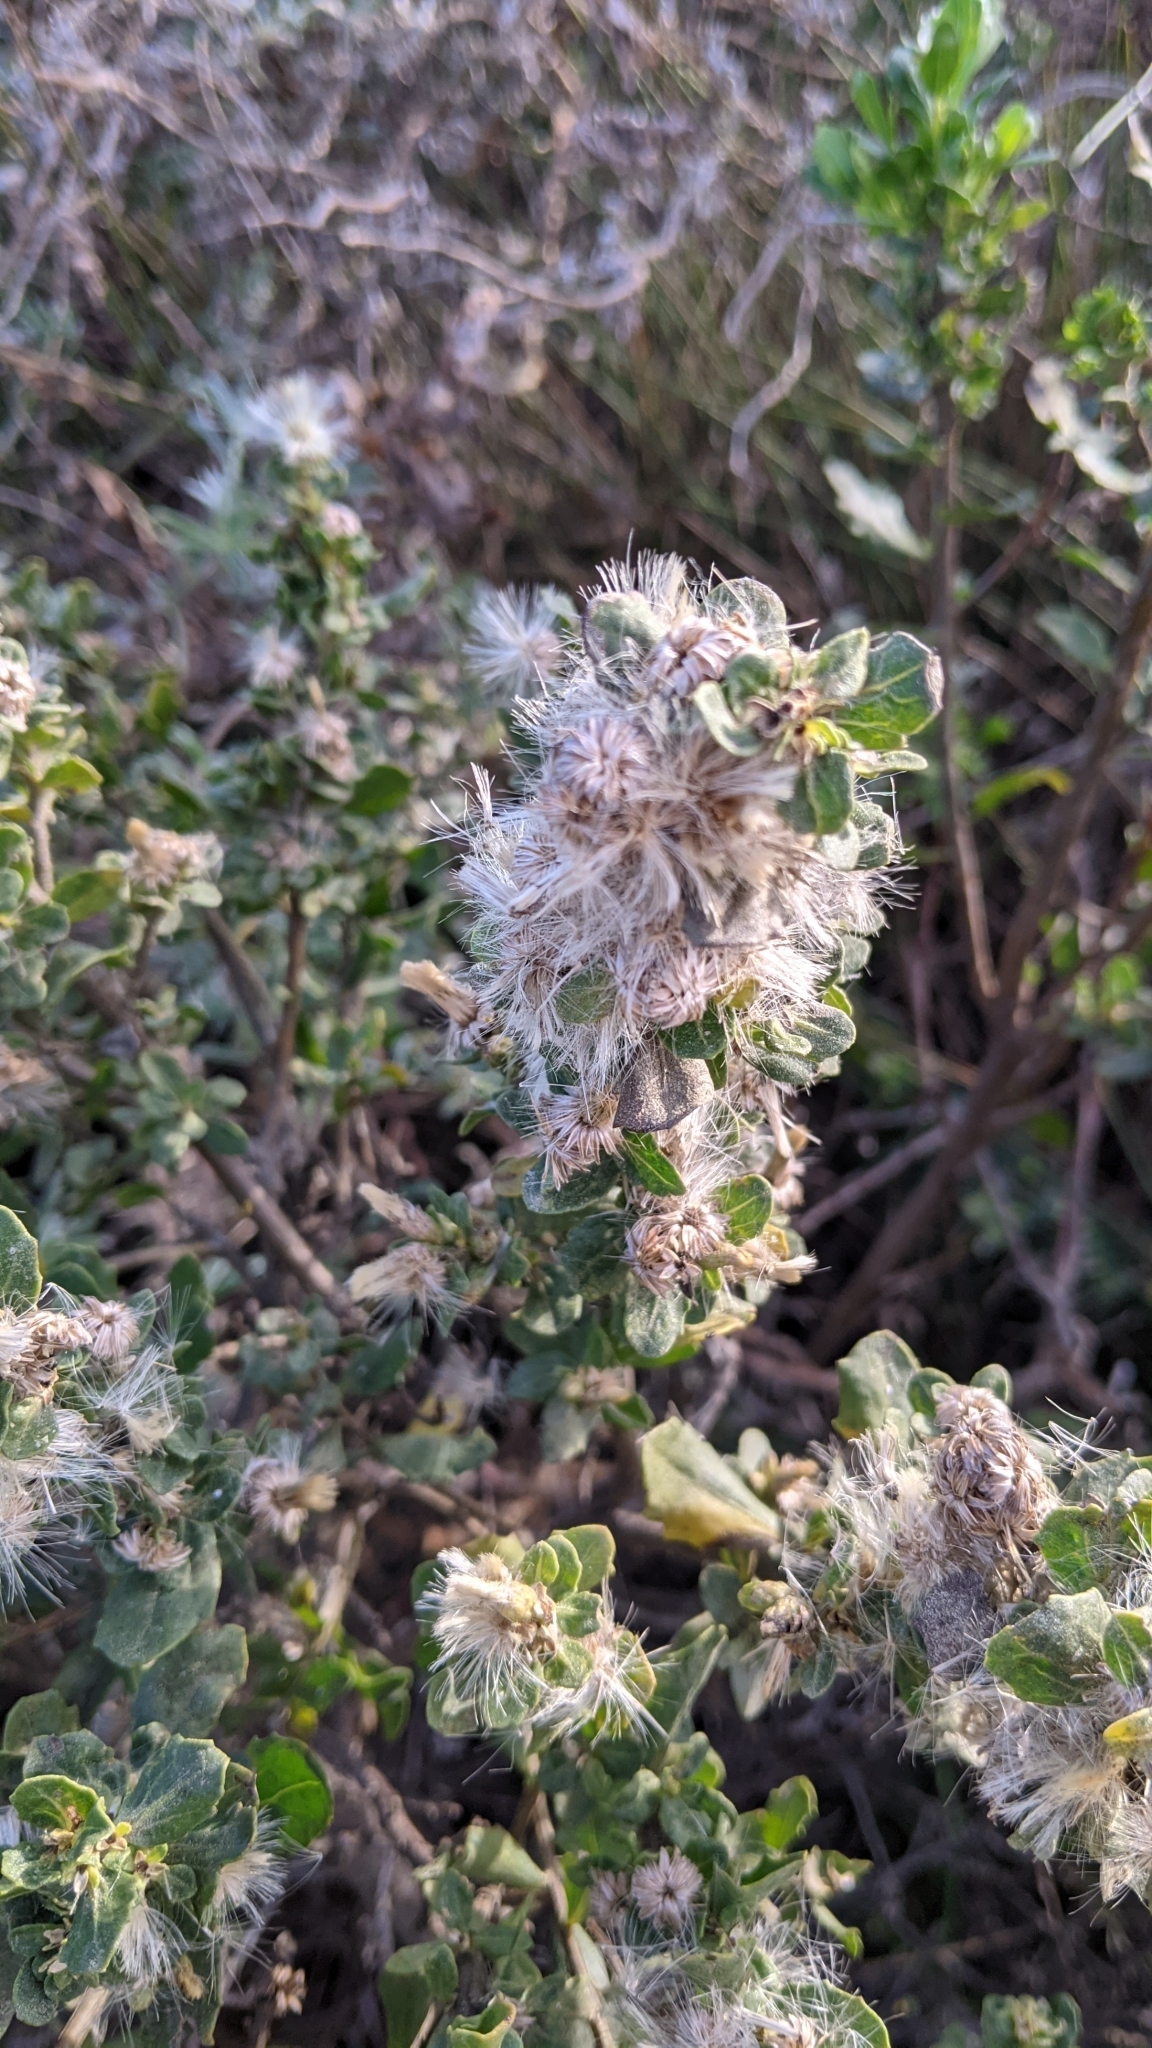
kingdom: Plantae
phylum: Tracheophyta
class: Magnoliopsida
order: Asterales
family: Asteraceae
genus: Baccharis
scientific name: Baccharis pilularis
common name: Coyotebrush
